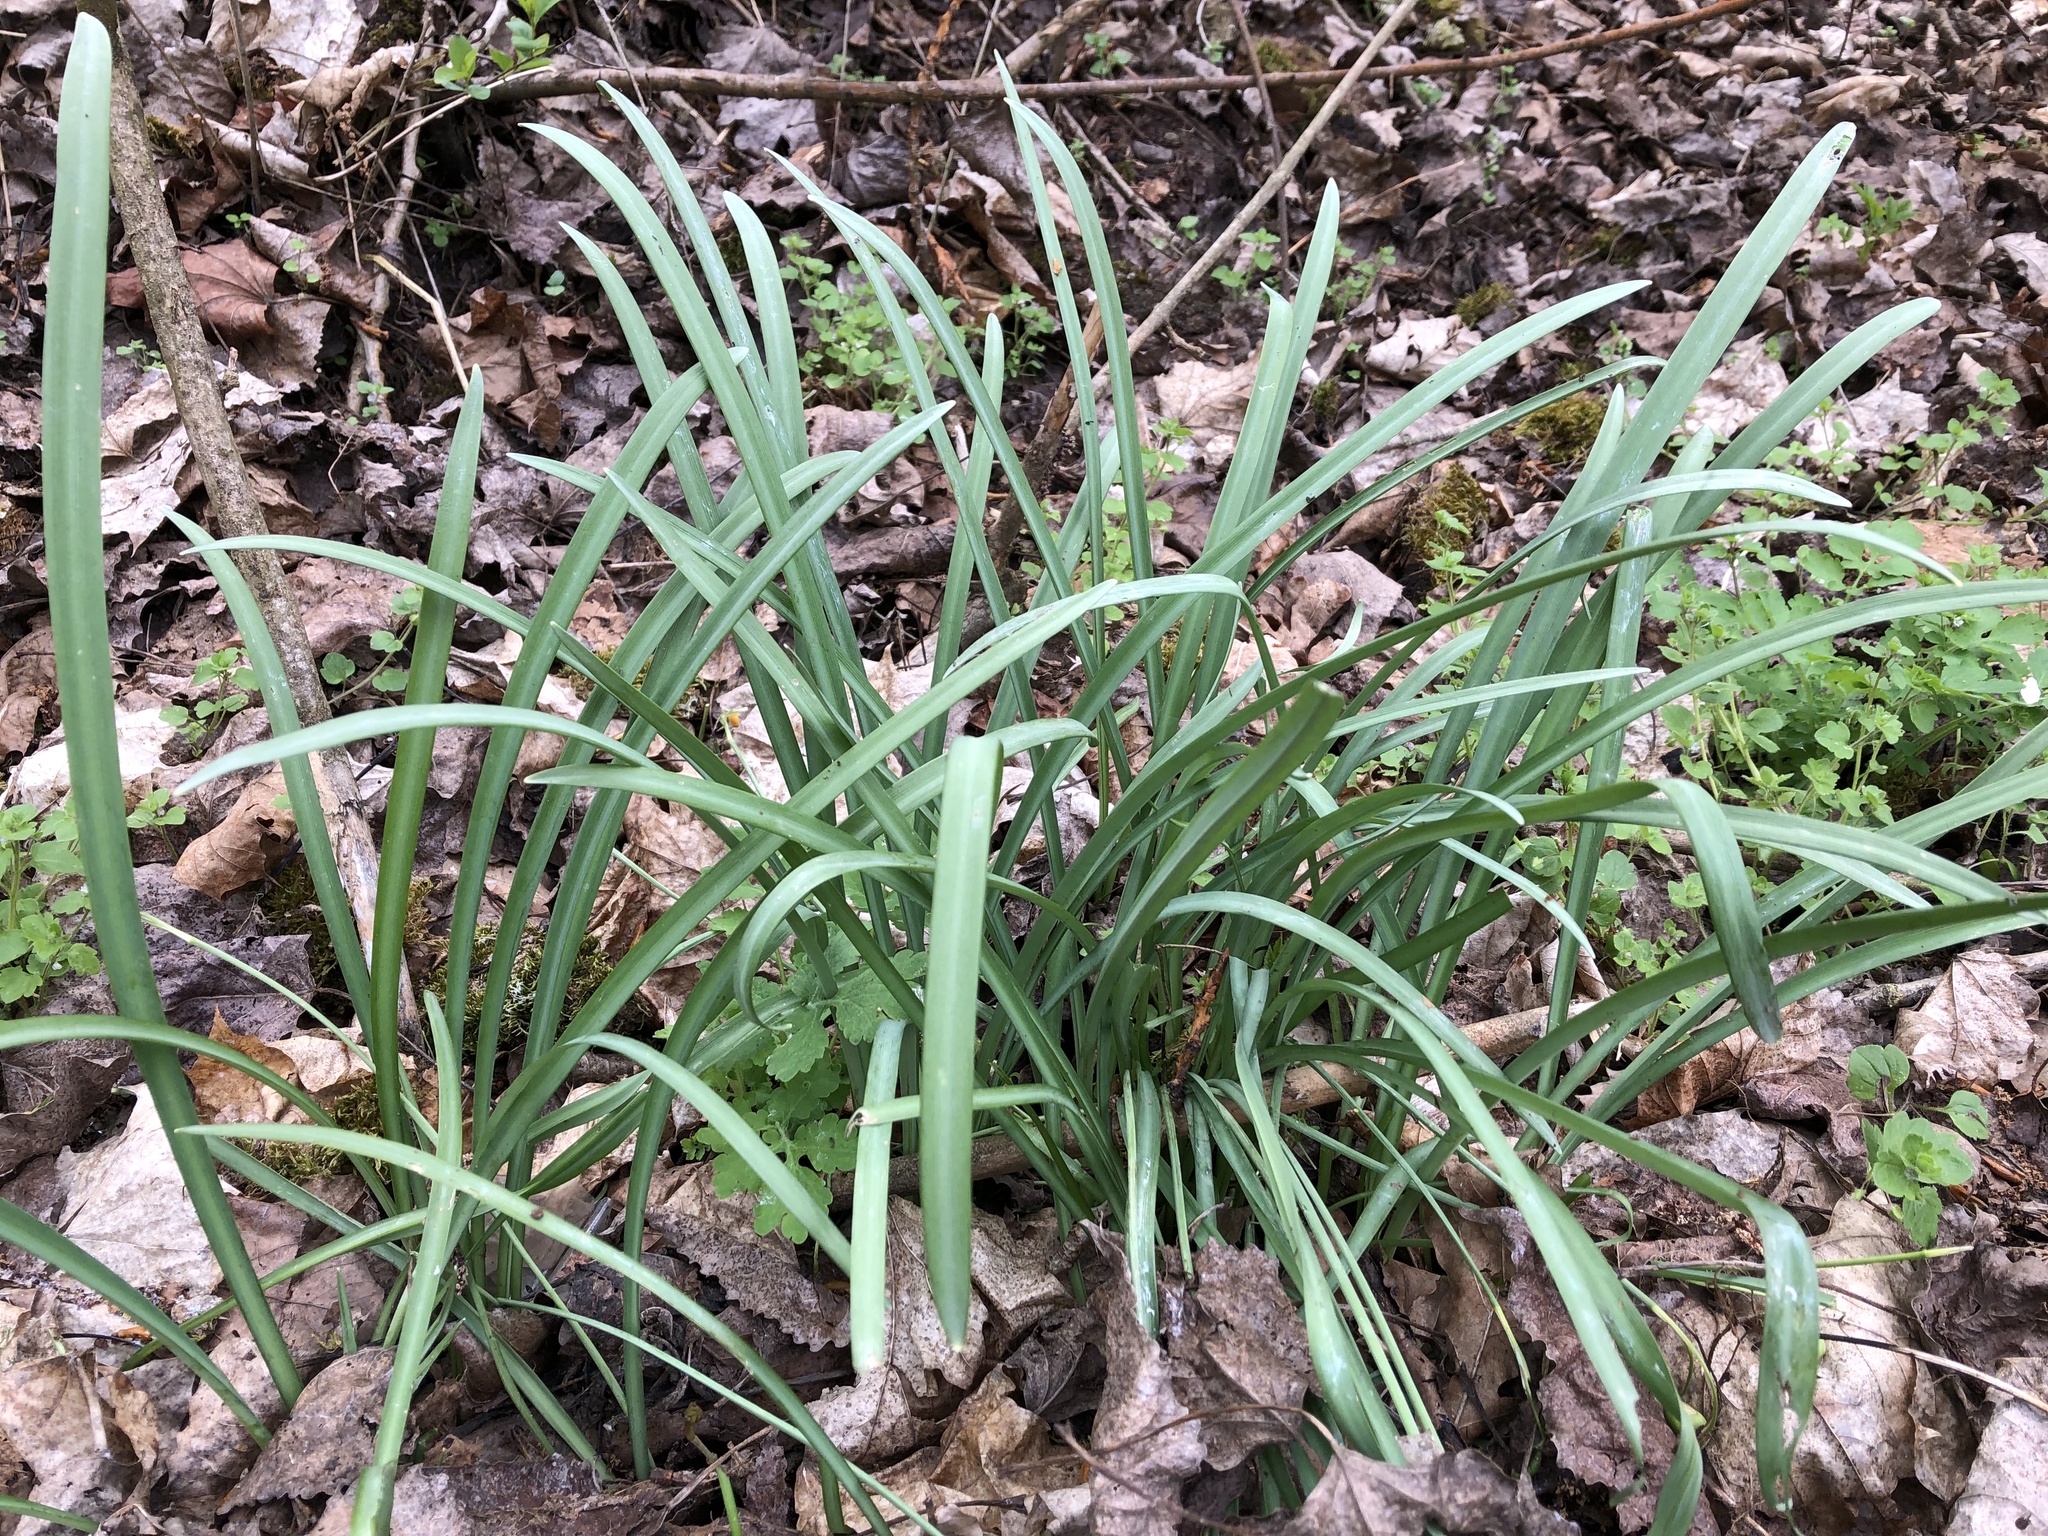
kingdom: Plantae
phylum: Tracheophyta
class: Liliopsida
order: Asparagales
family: Amaryllidaceae
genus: Galanthus
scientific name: Galanthus nivalis
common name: Snowdrop
